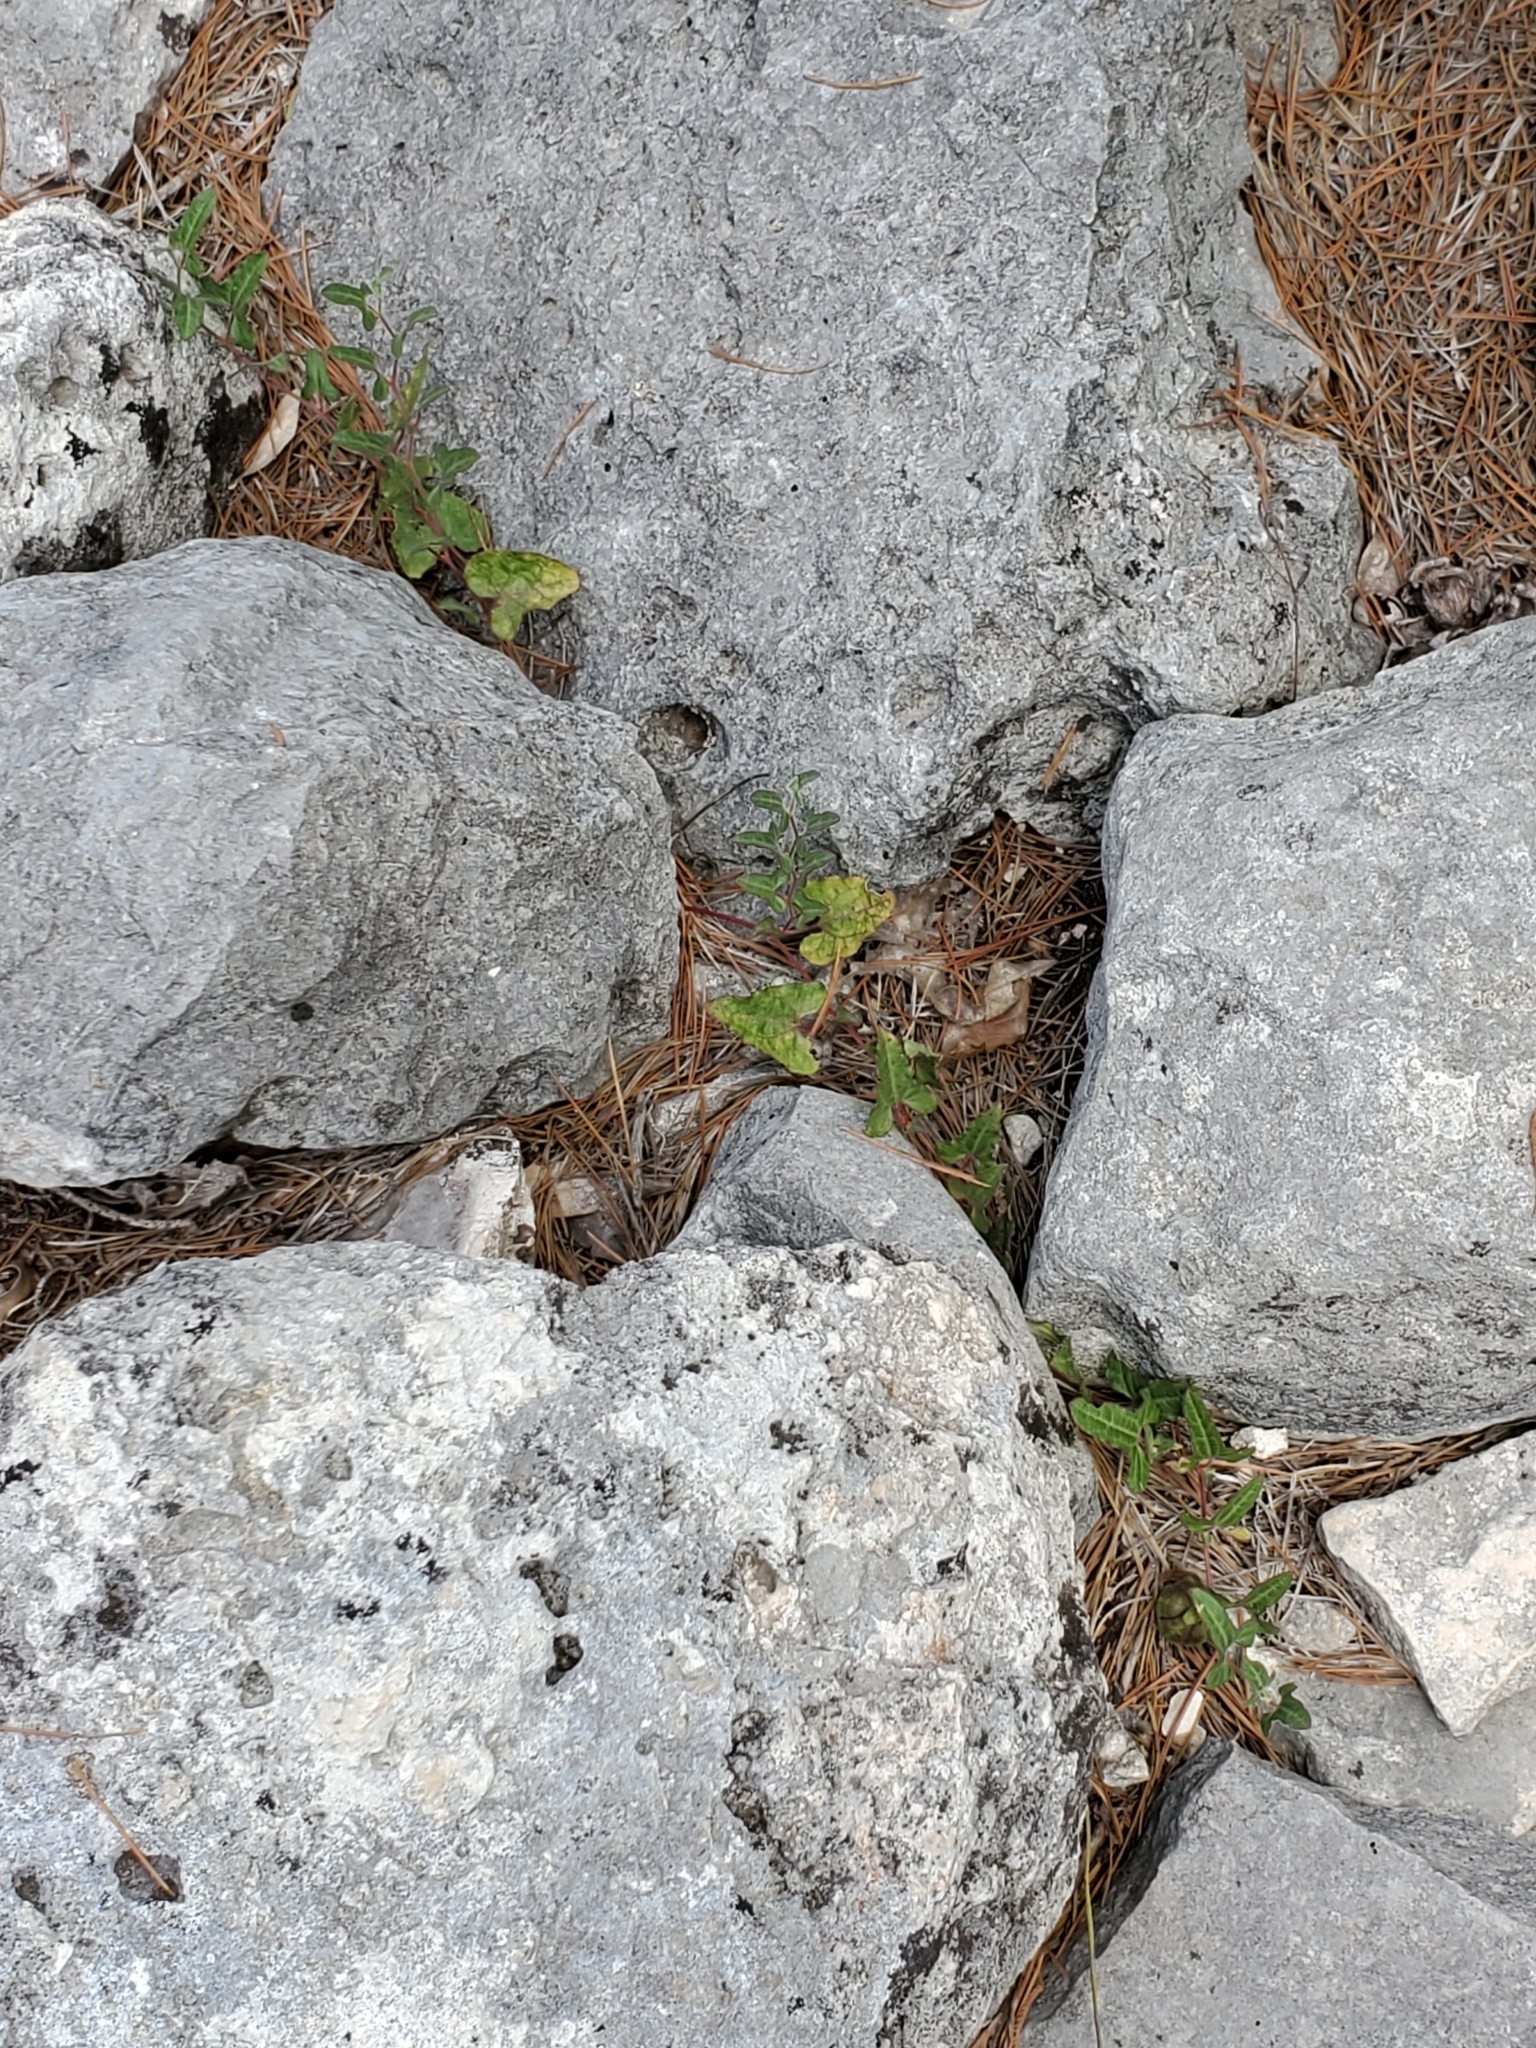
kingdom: Plantae
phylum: Tracheophyta
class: Magnoliopsida
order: Piperales
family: Aristolochiaceae
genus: Aristolochia
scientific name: Aristolochia coryi
